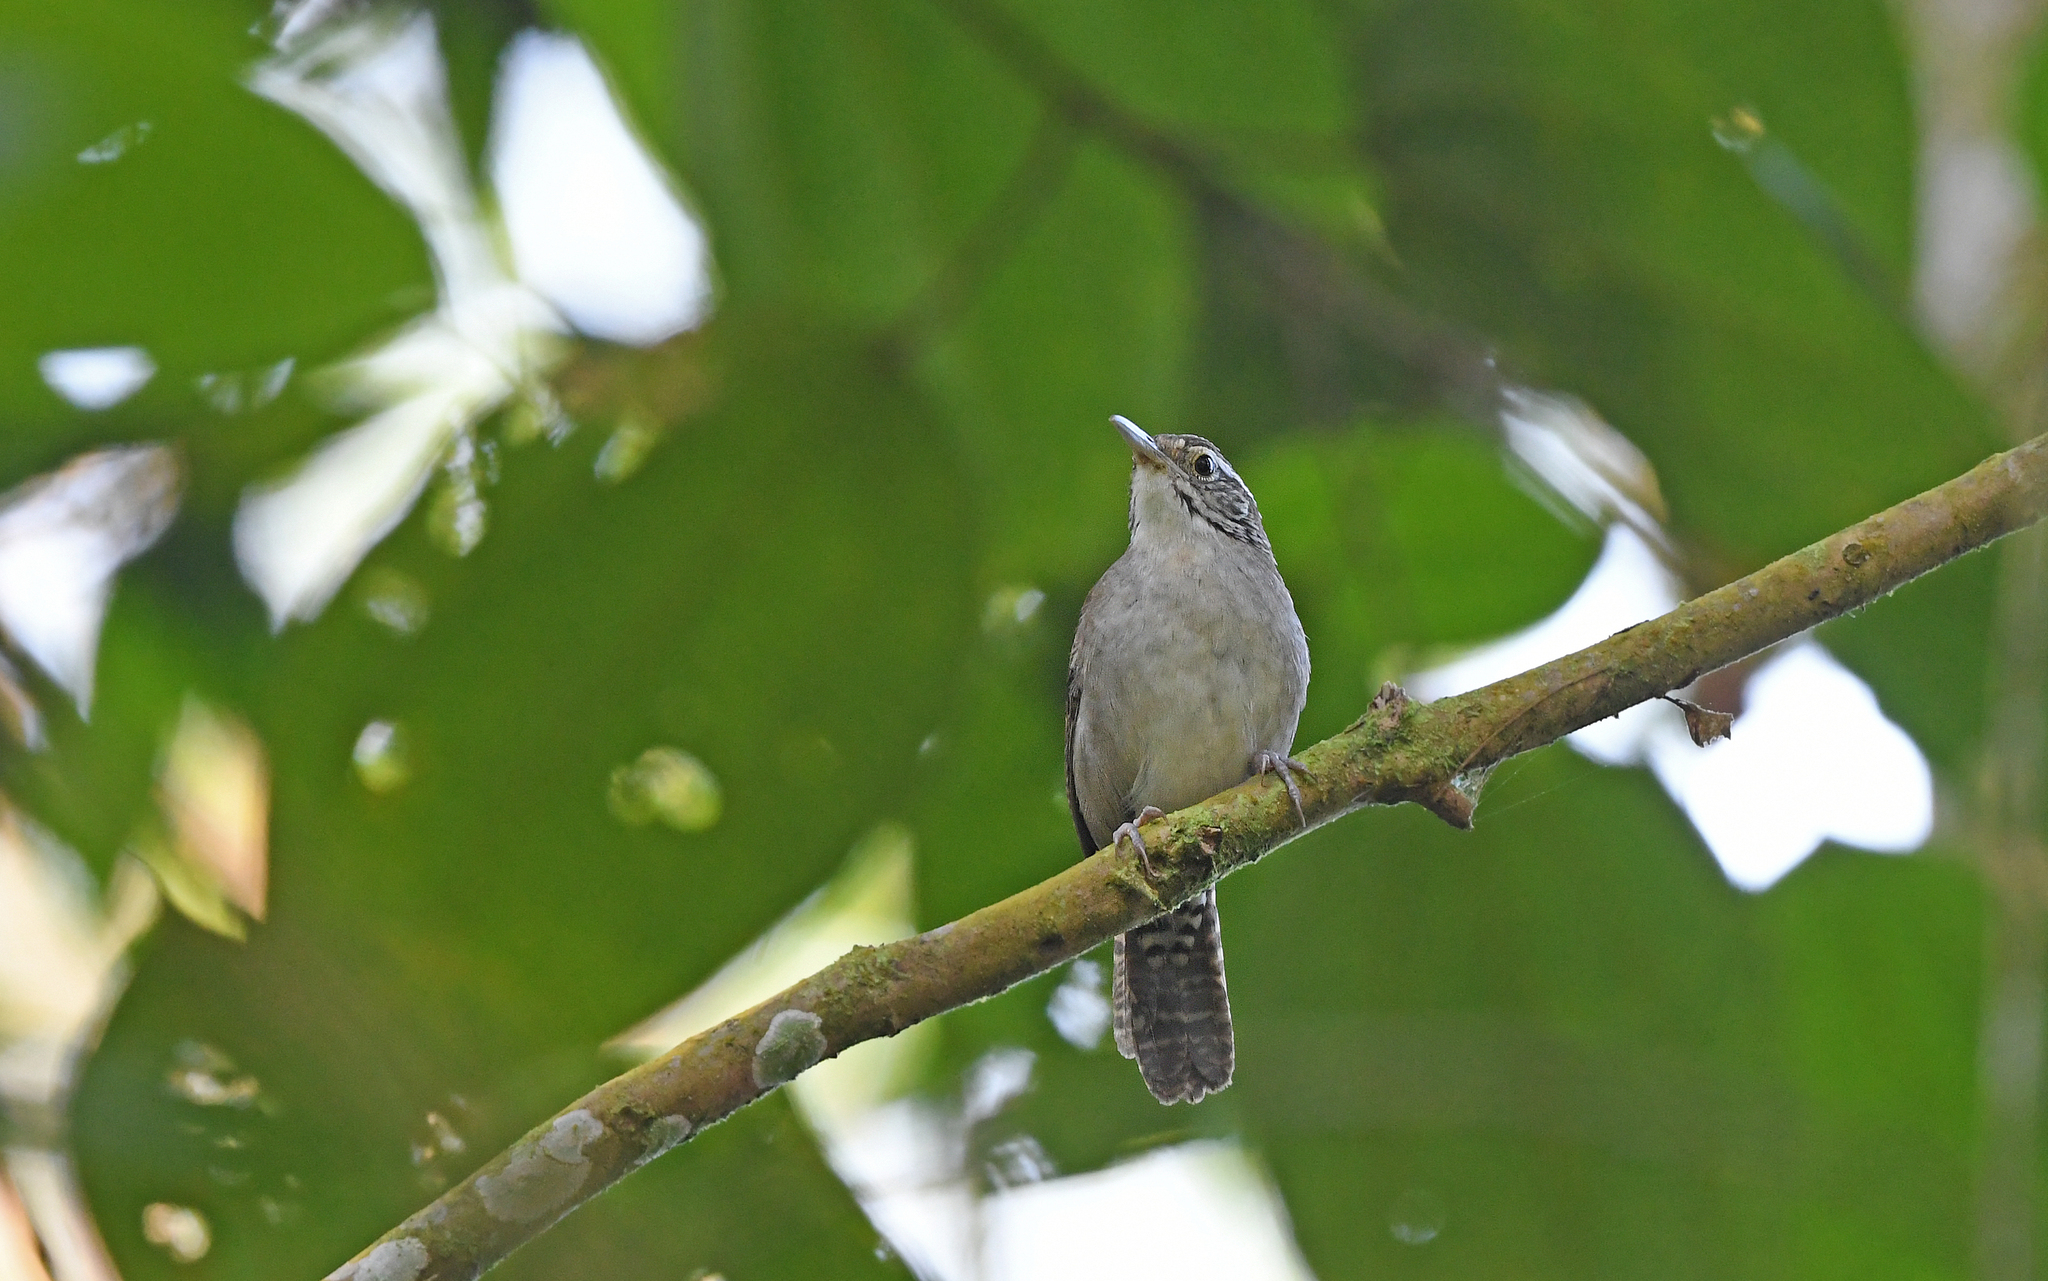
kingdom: Animalia
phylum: Chordata
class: Aves
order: Passeriformes
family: Troglodytidae
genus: Thryophilus
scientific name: Thryophilus nicefori
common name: Niceforo's wren
